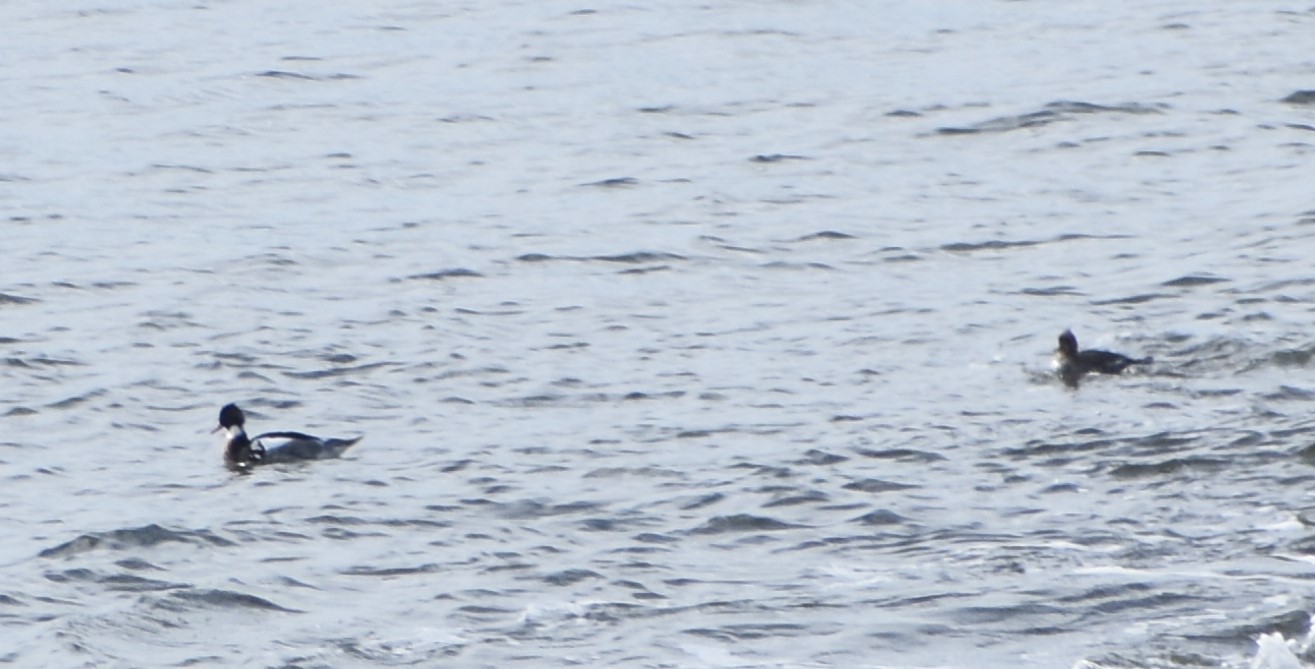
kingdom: Animalia
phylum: Chordata
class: Aves
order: Anseriformes
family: Anatidae
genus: Mergus
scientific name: Mergus serrator
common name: Red-breasted merganser
